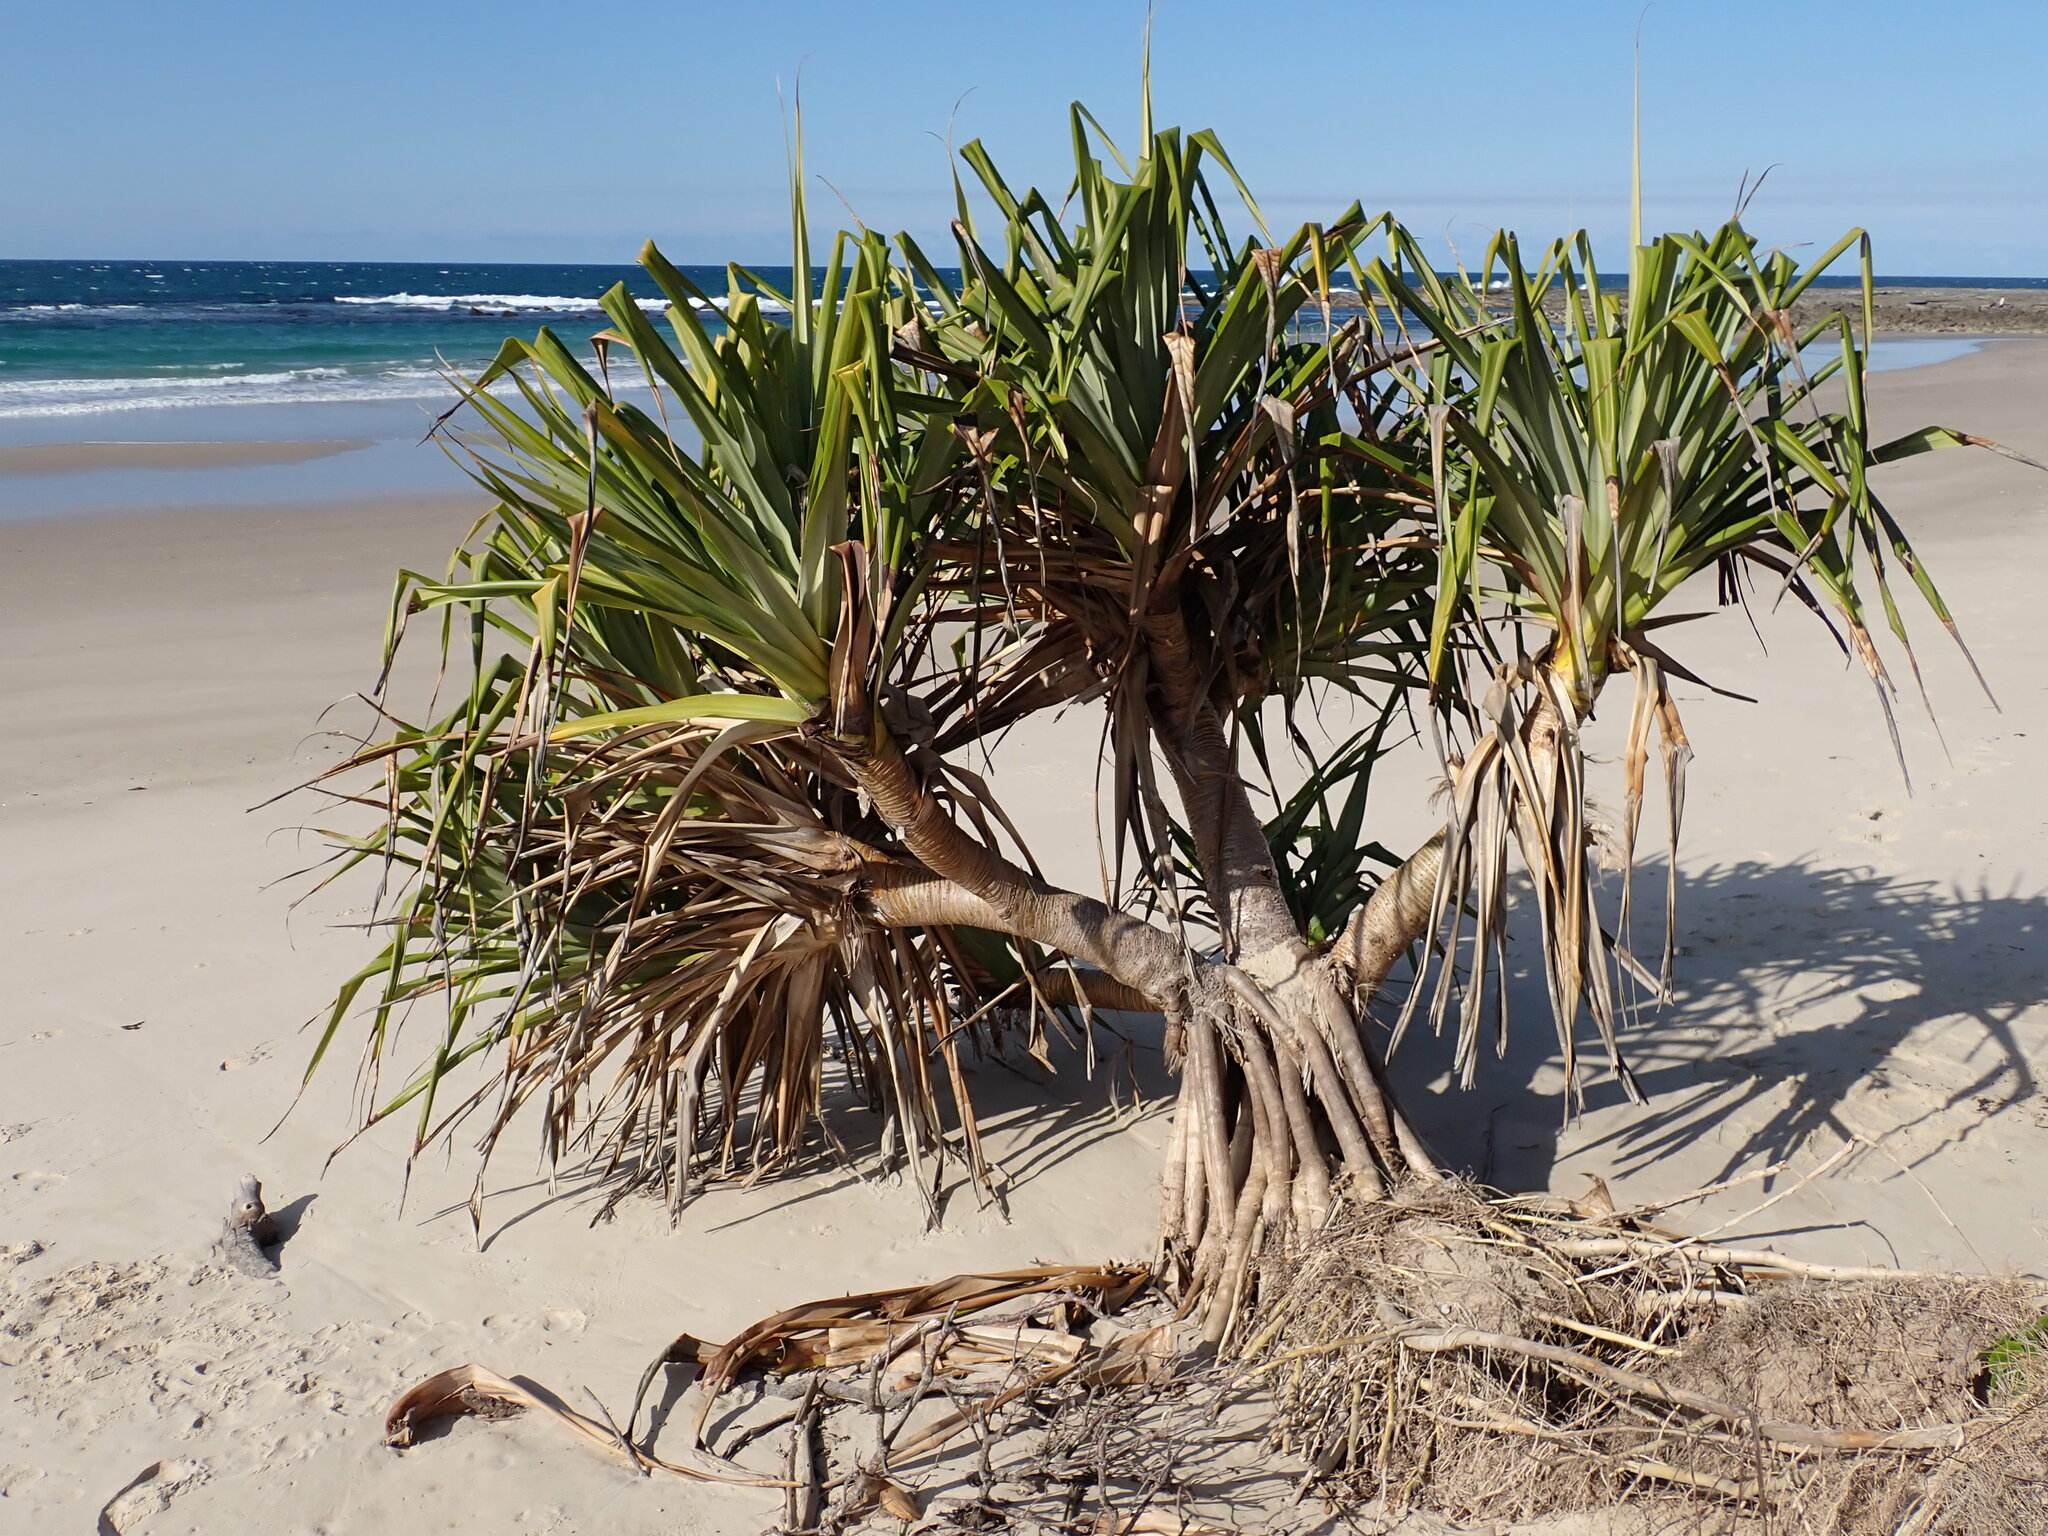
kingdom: Plantae
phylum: Tracheophyta
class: Liliopsida
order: Pandanales
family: Pandanaceae
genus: Pandanus
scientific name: Pandanus tectorius
